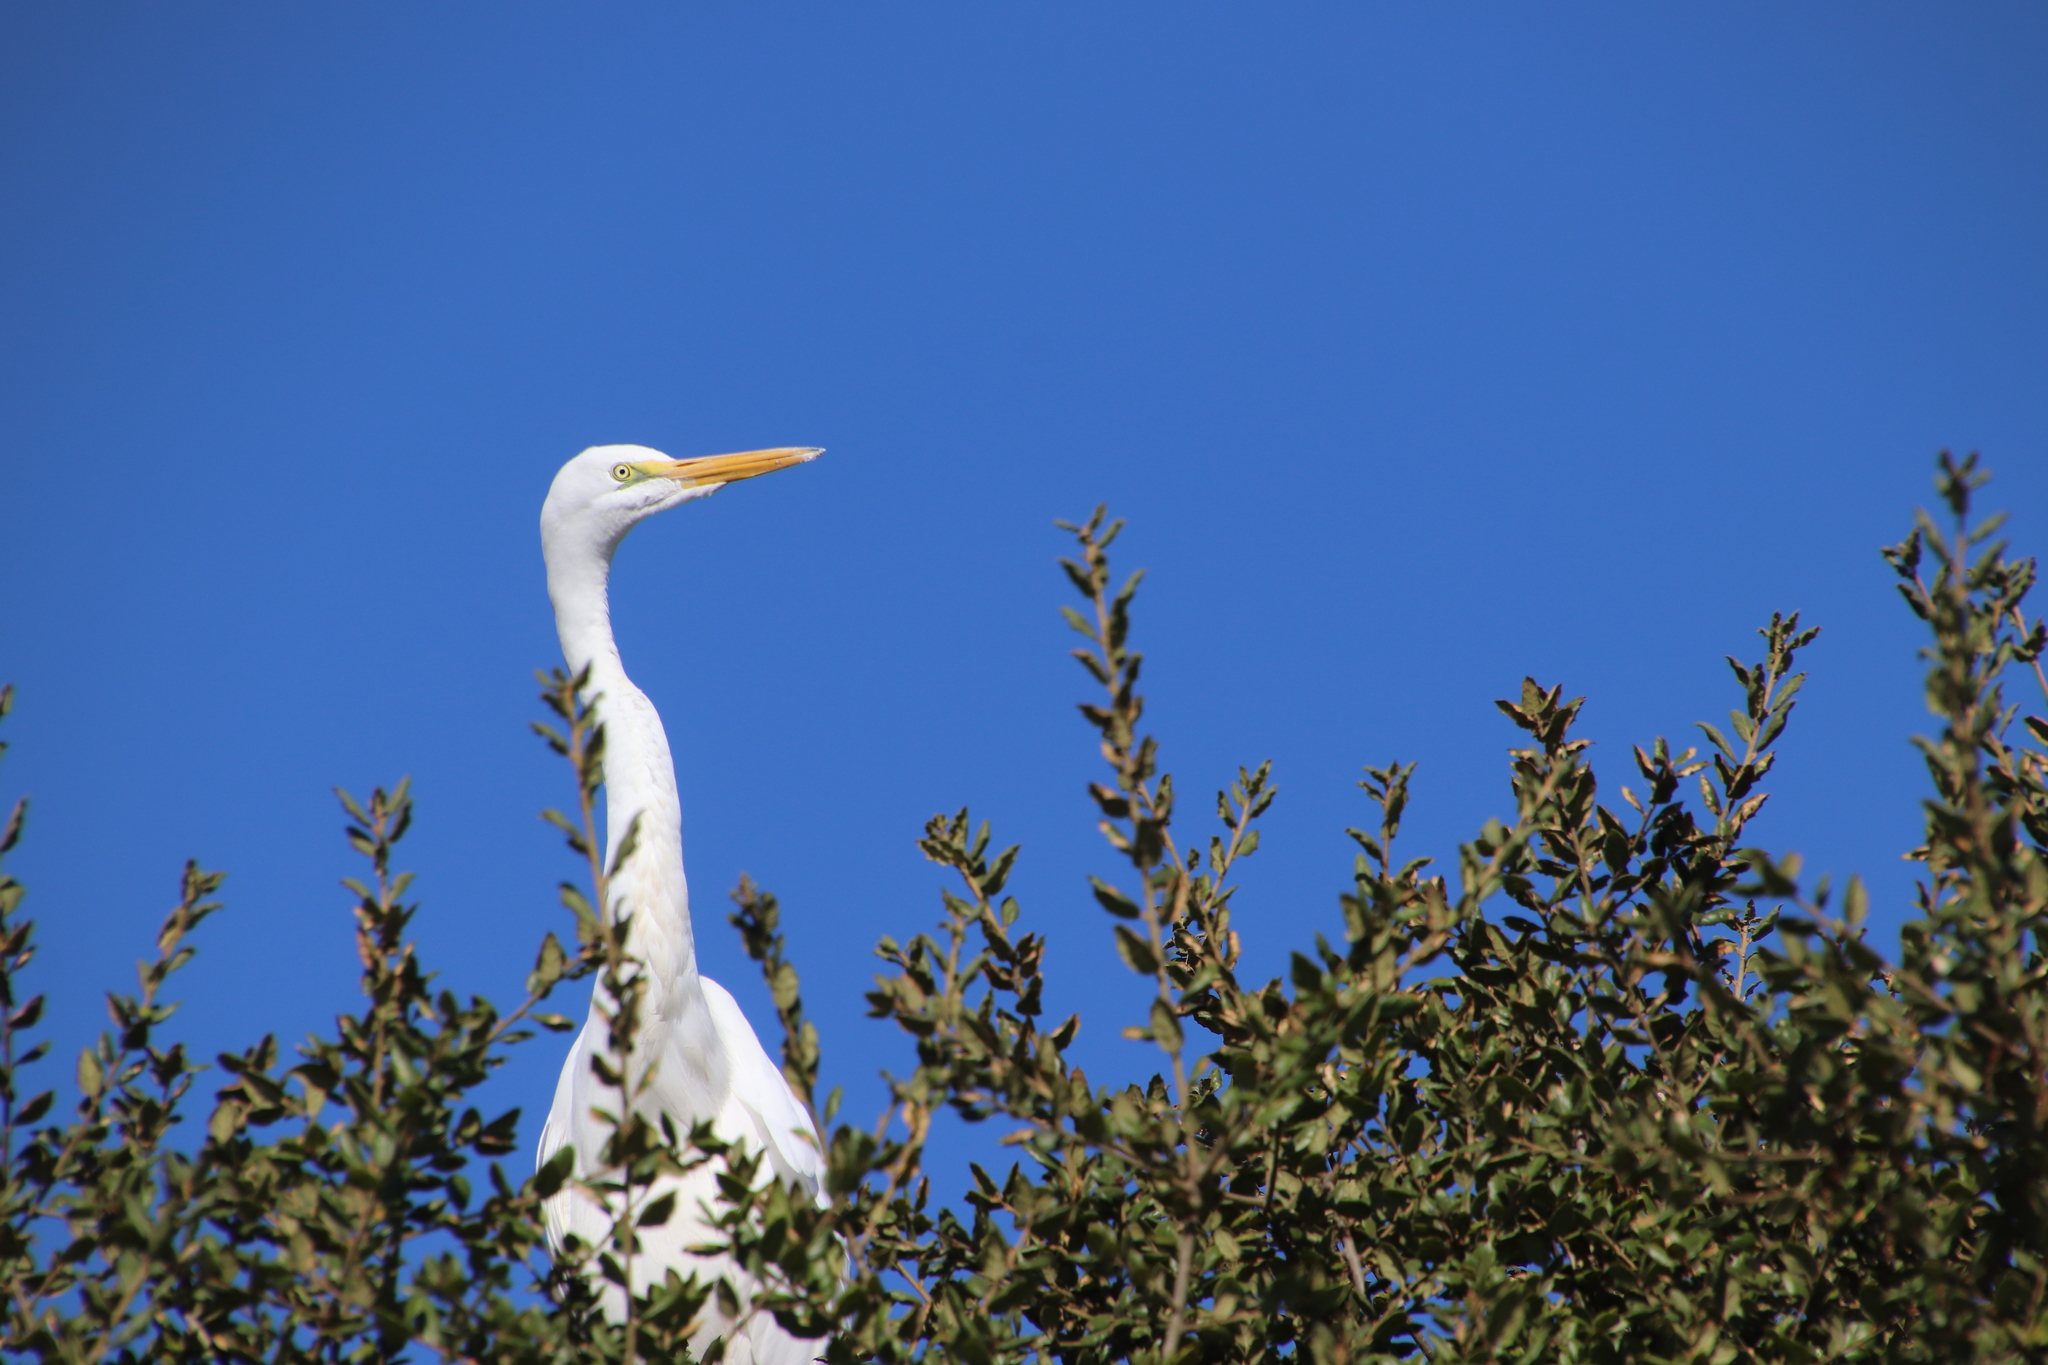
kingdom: Animalia
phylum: Chordata
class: Aves
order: Pelecaniformes
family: Ardeidae
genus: Ardea
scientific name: Ardea alba
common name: Great egret
